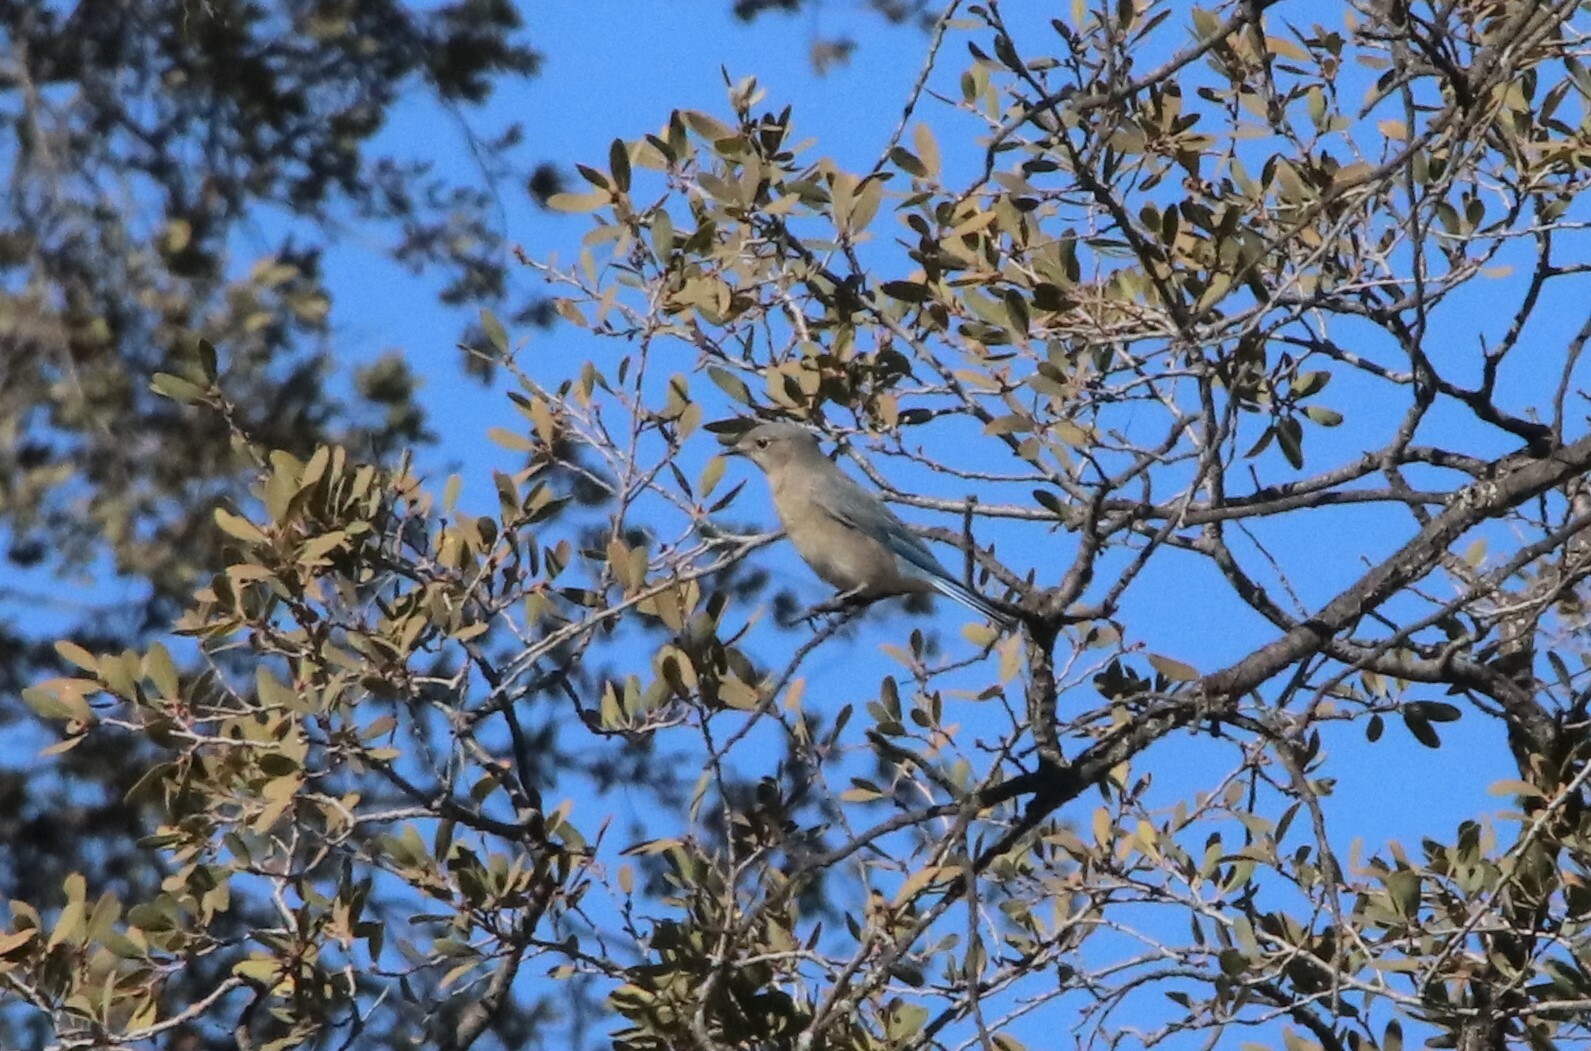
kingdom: Animalia
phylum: Chordata
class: Aves
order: Passeriformes
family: Turdidae
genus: Sialia
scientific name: Sialia currucoides
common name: Mountain bluebird
